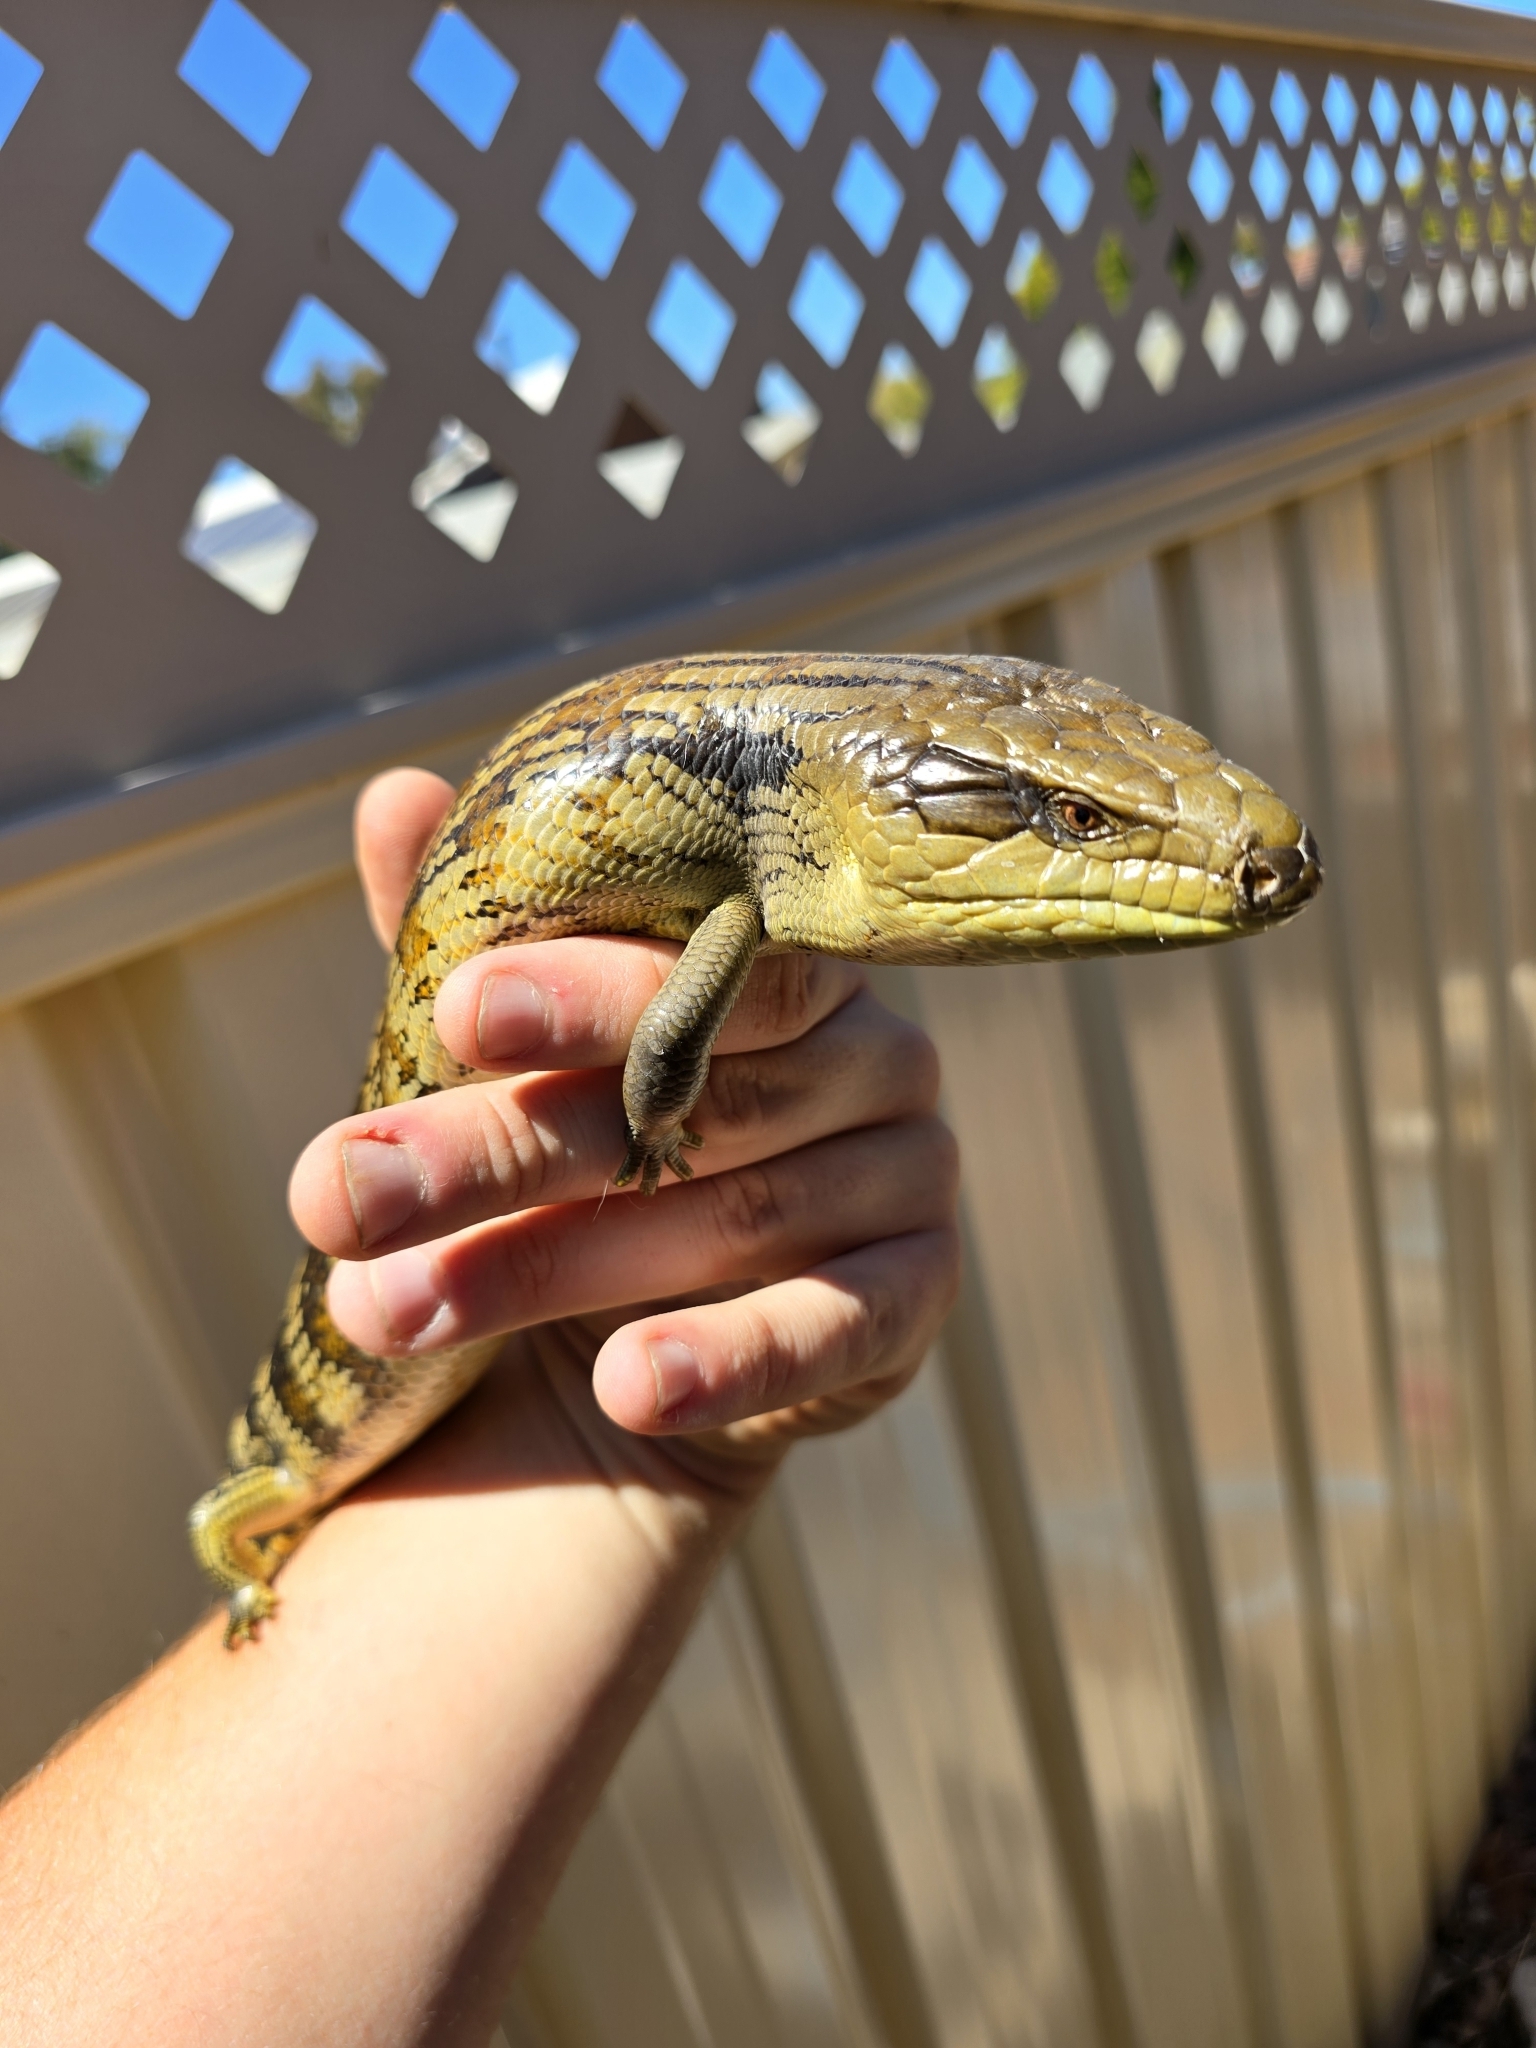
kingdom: Animalia
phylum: Chordata
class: Squamata
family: Scincidae
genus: Tiliqua
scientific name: Tiliqua scincoides
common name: Common bluetongue
